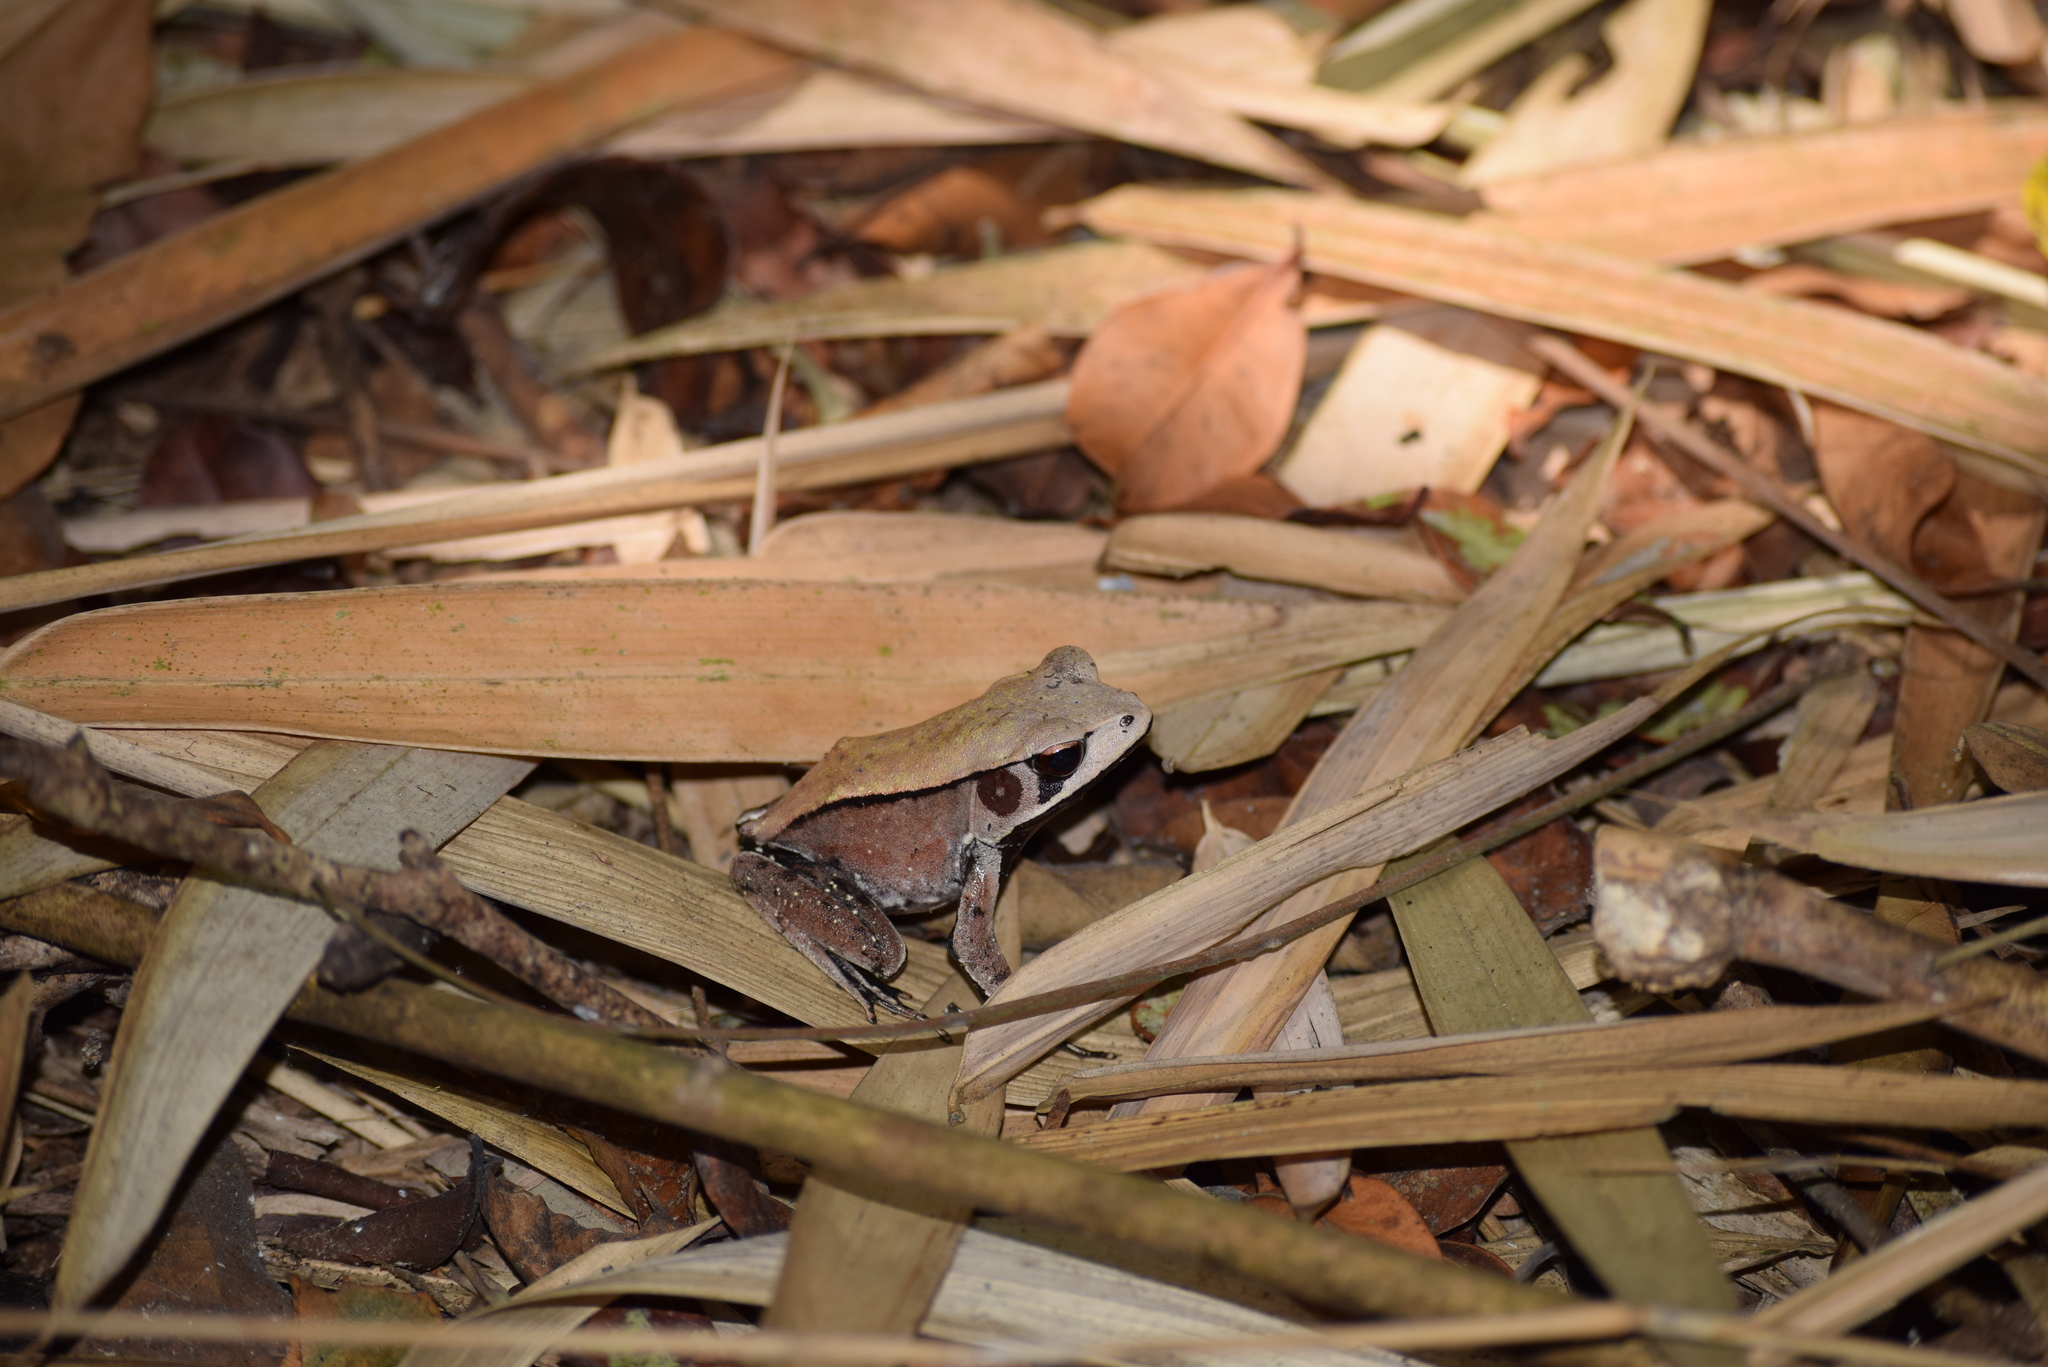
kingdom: Animalia
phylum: Chordata
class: Amphibia
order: Anura
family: Ranidae
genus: Clinotarsus
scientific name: Clinotarsus curtipes
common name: Bicoloured frog
